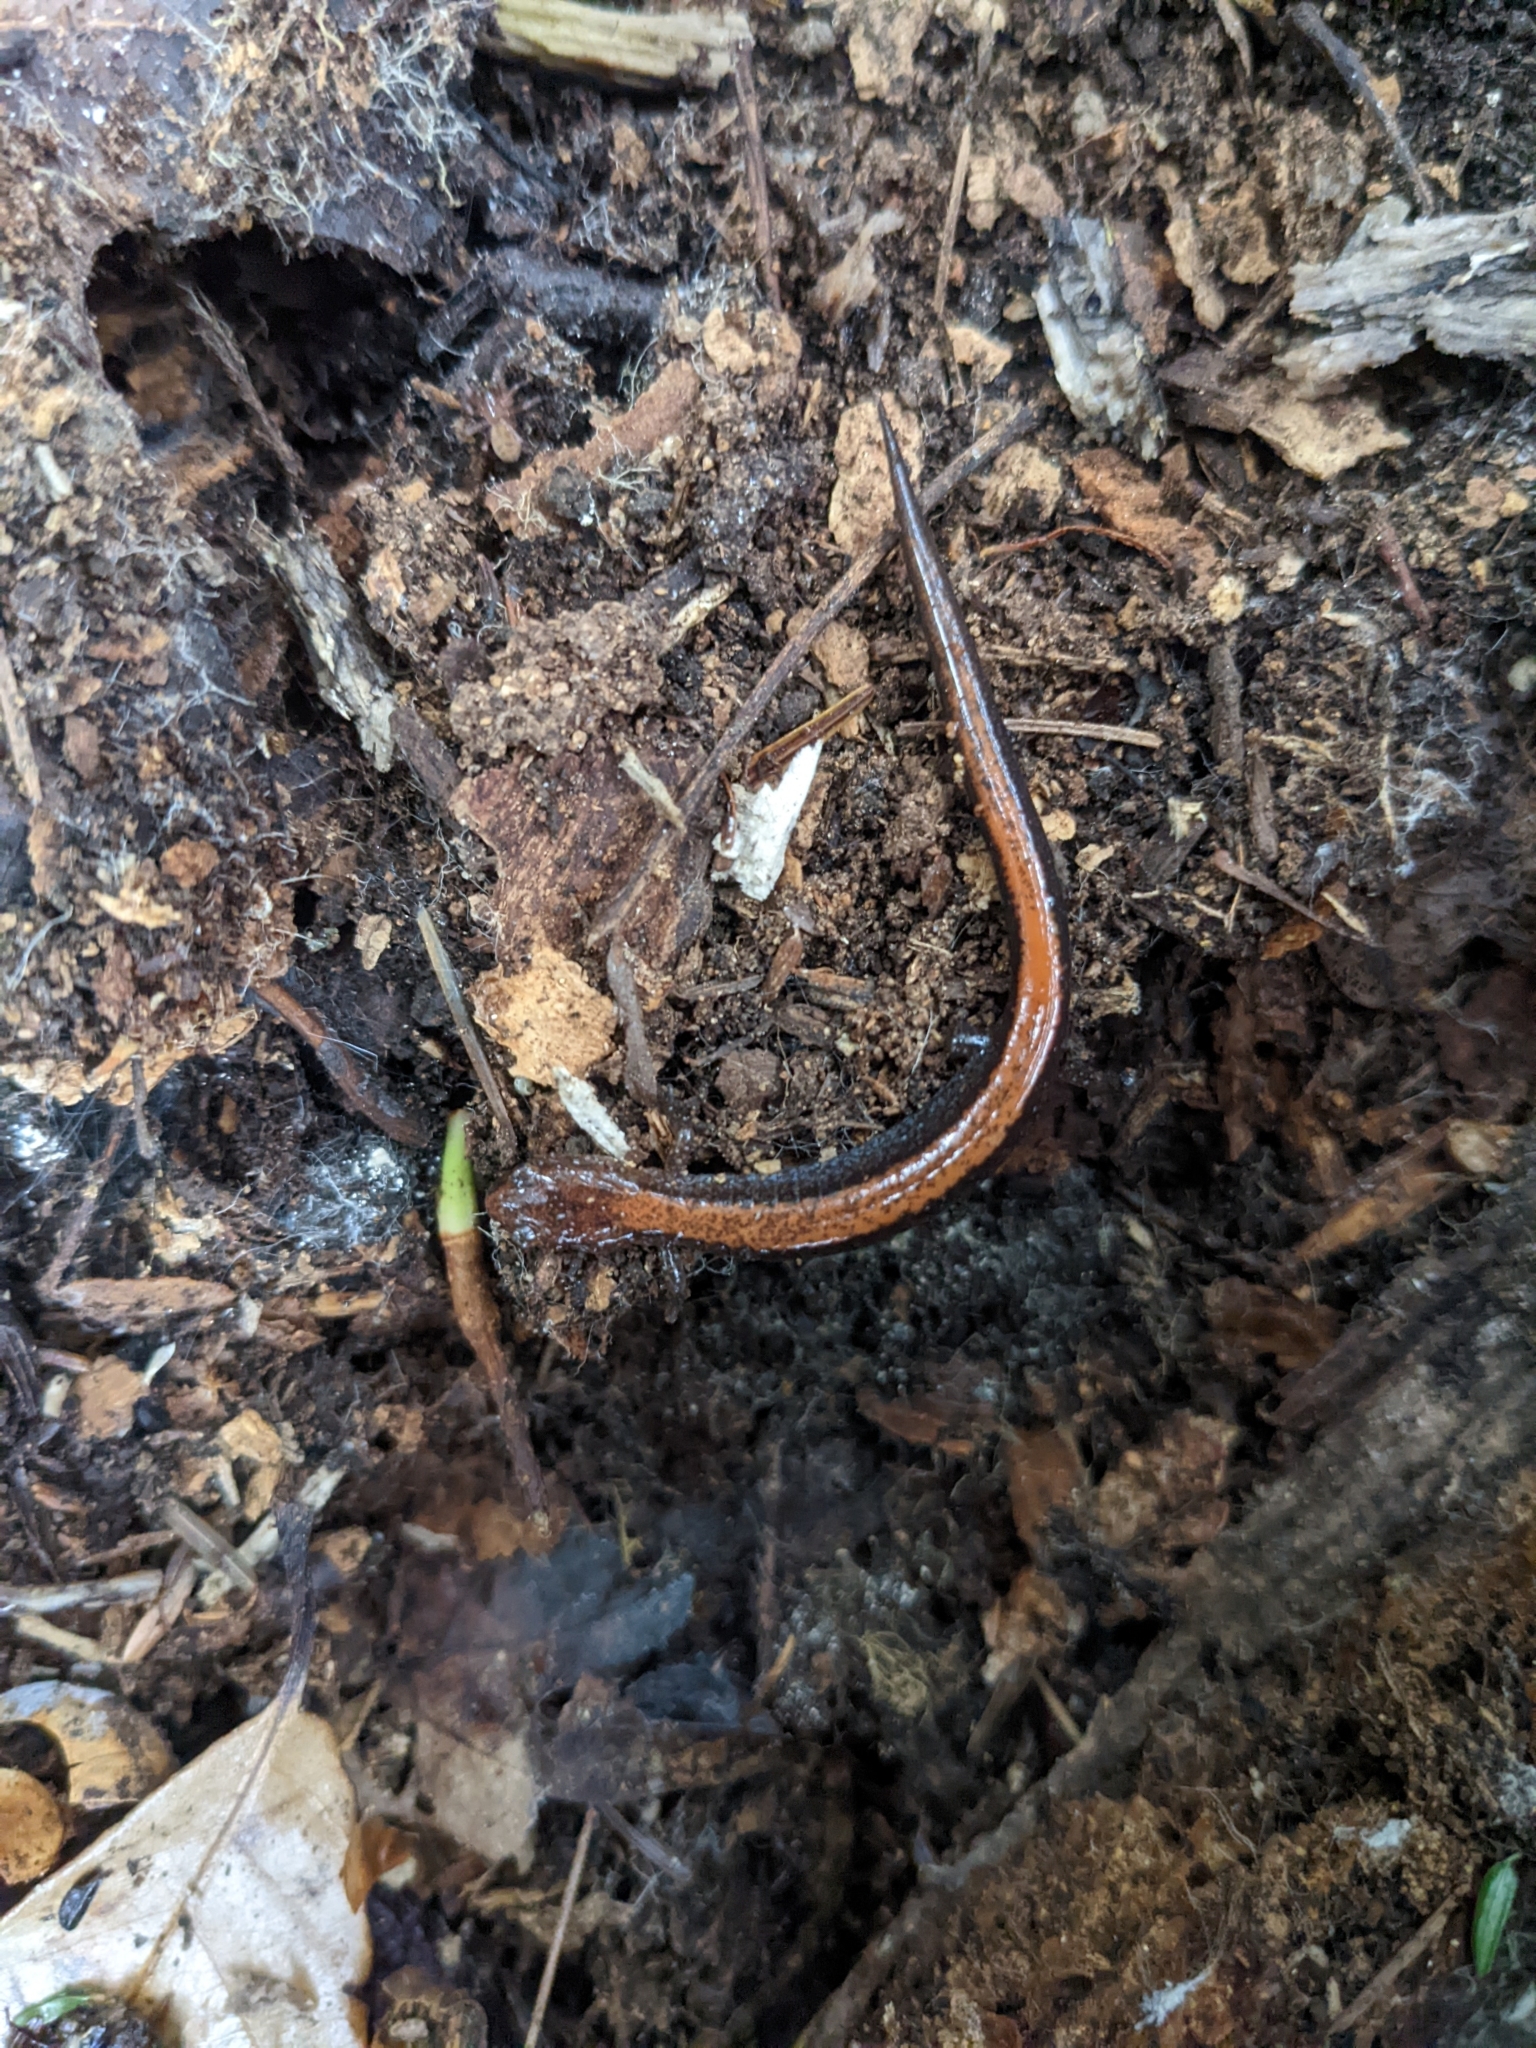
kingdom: Animalia
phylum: Chordata
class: Amphibia
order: Caudata
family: Plethodontidae
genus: Plethodon
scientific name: Plethodon cinereus
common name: Redback salamander
